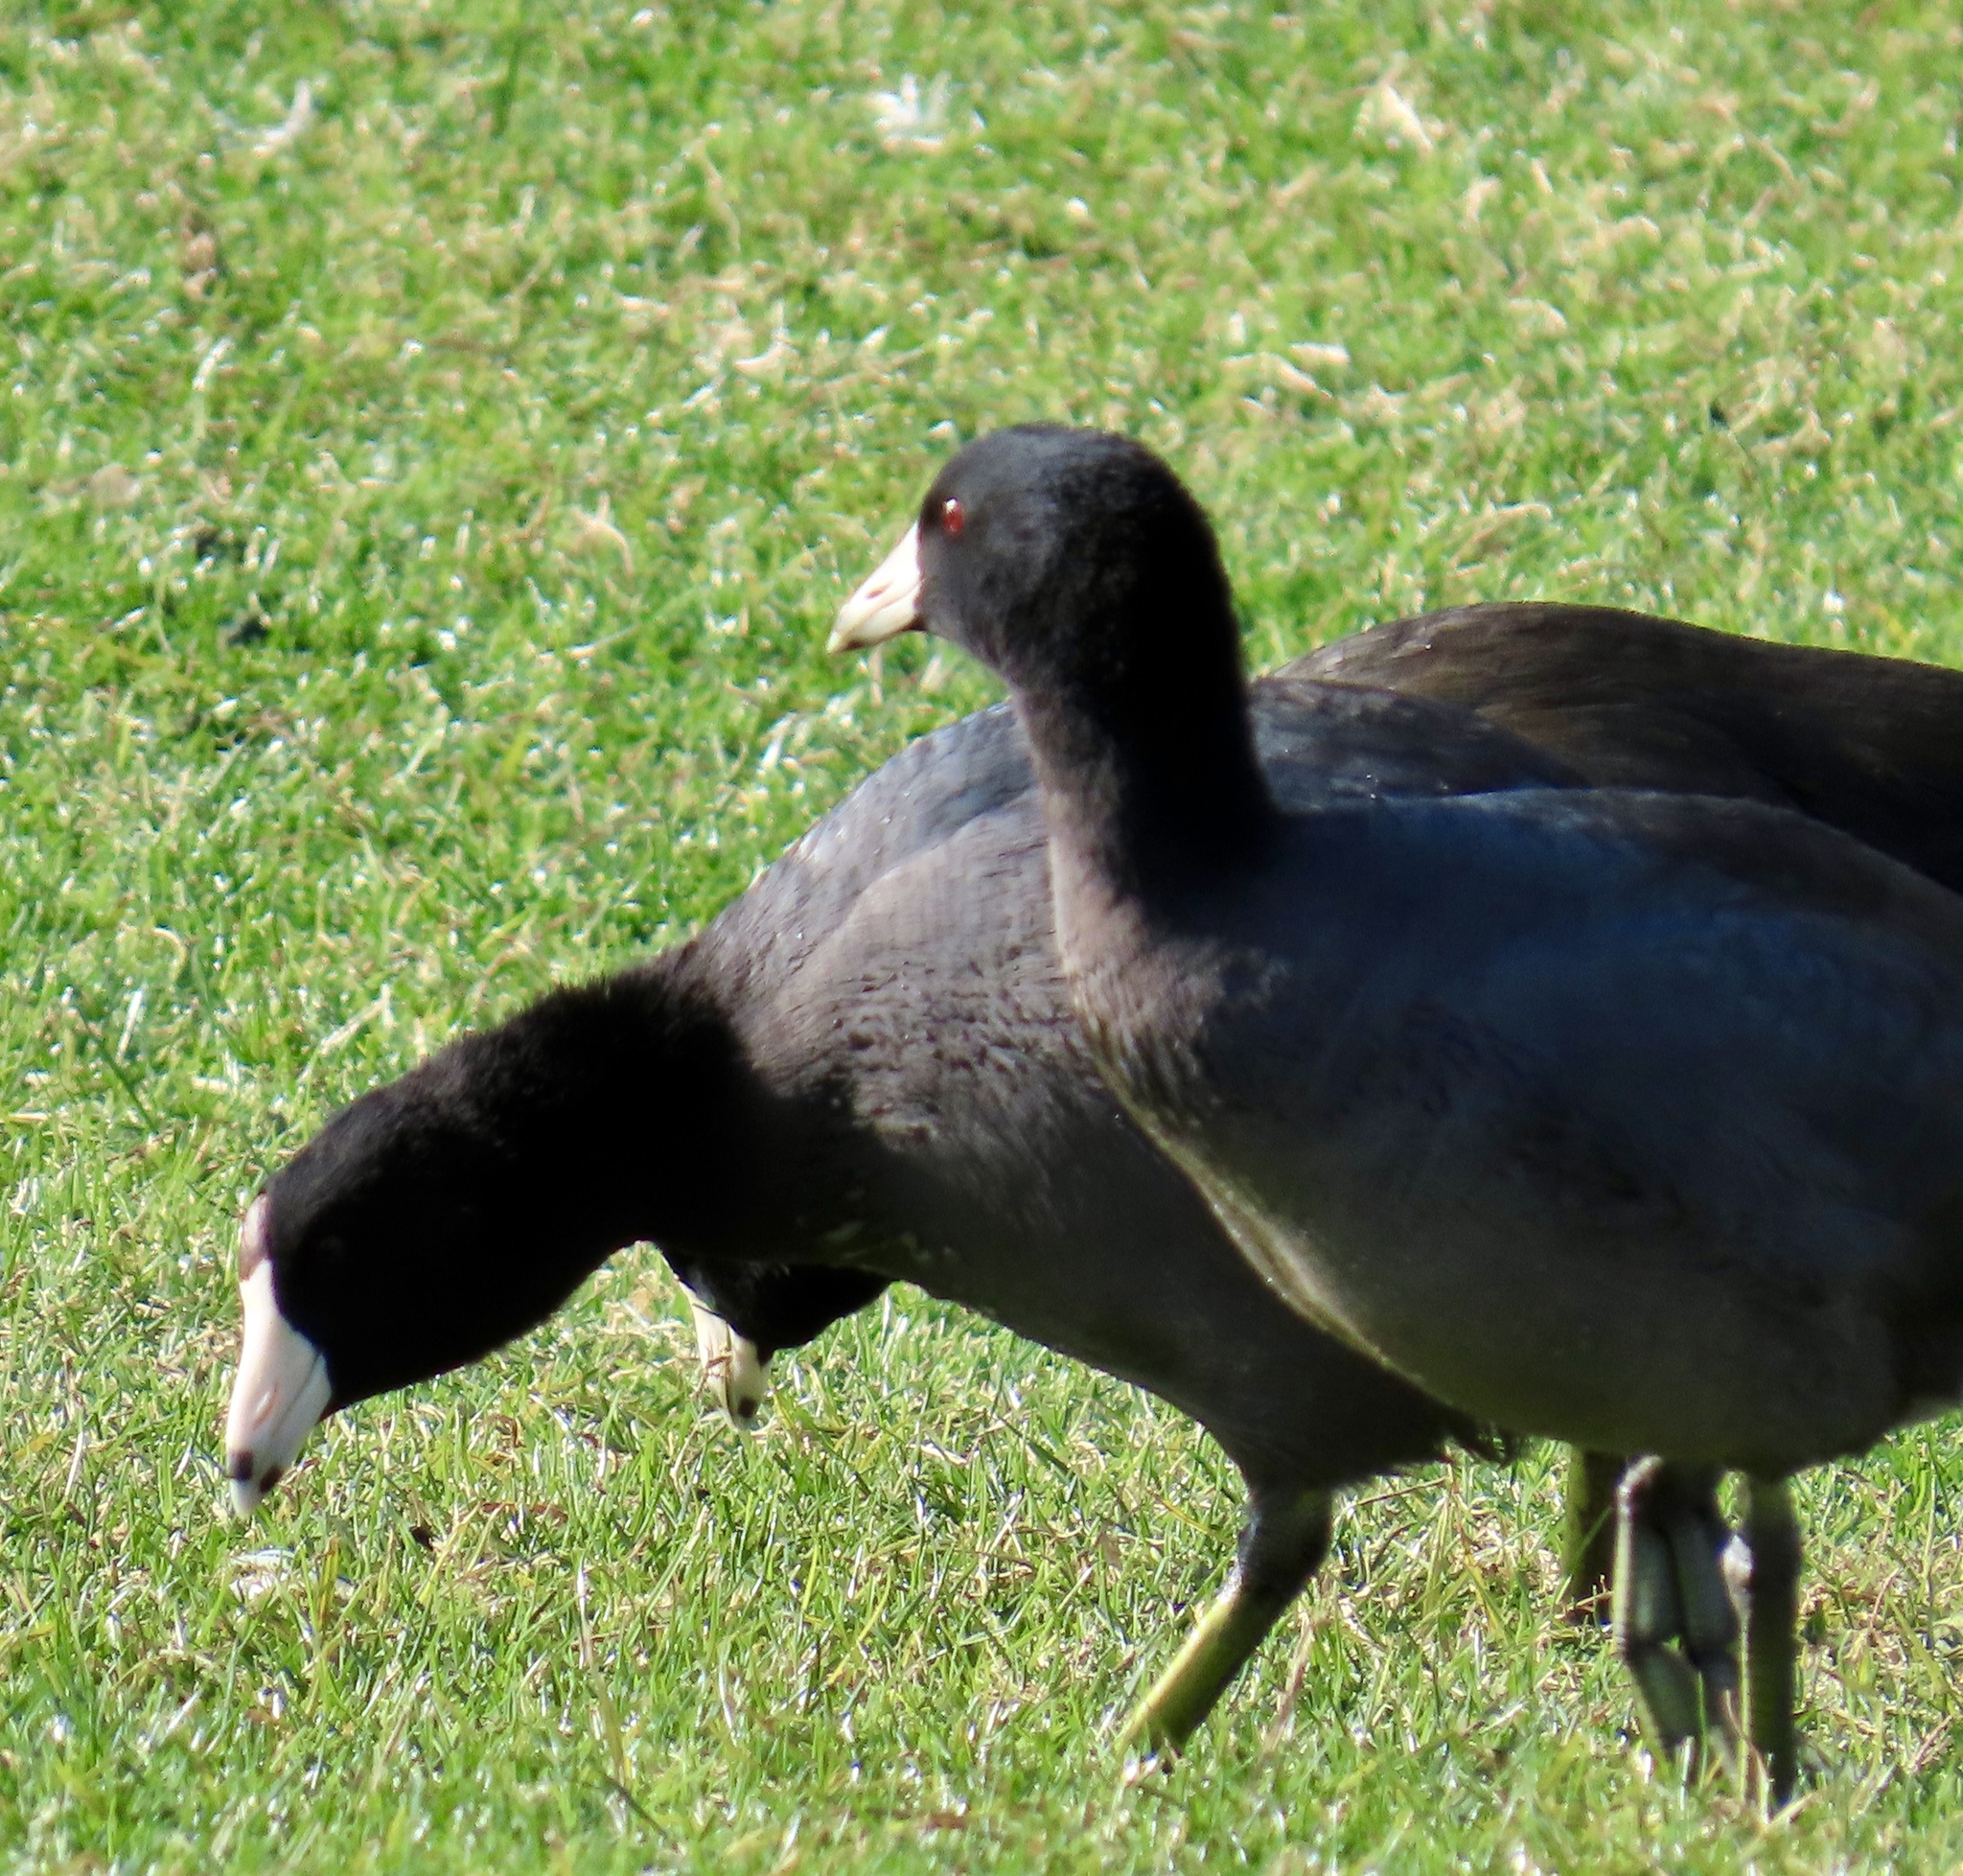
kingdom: Animalia
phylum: Chordata
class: Aves
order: Gruiformes
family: Rallidae
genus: Fulica
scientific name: Fulica americana
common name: American coot
